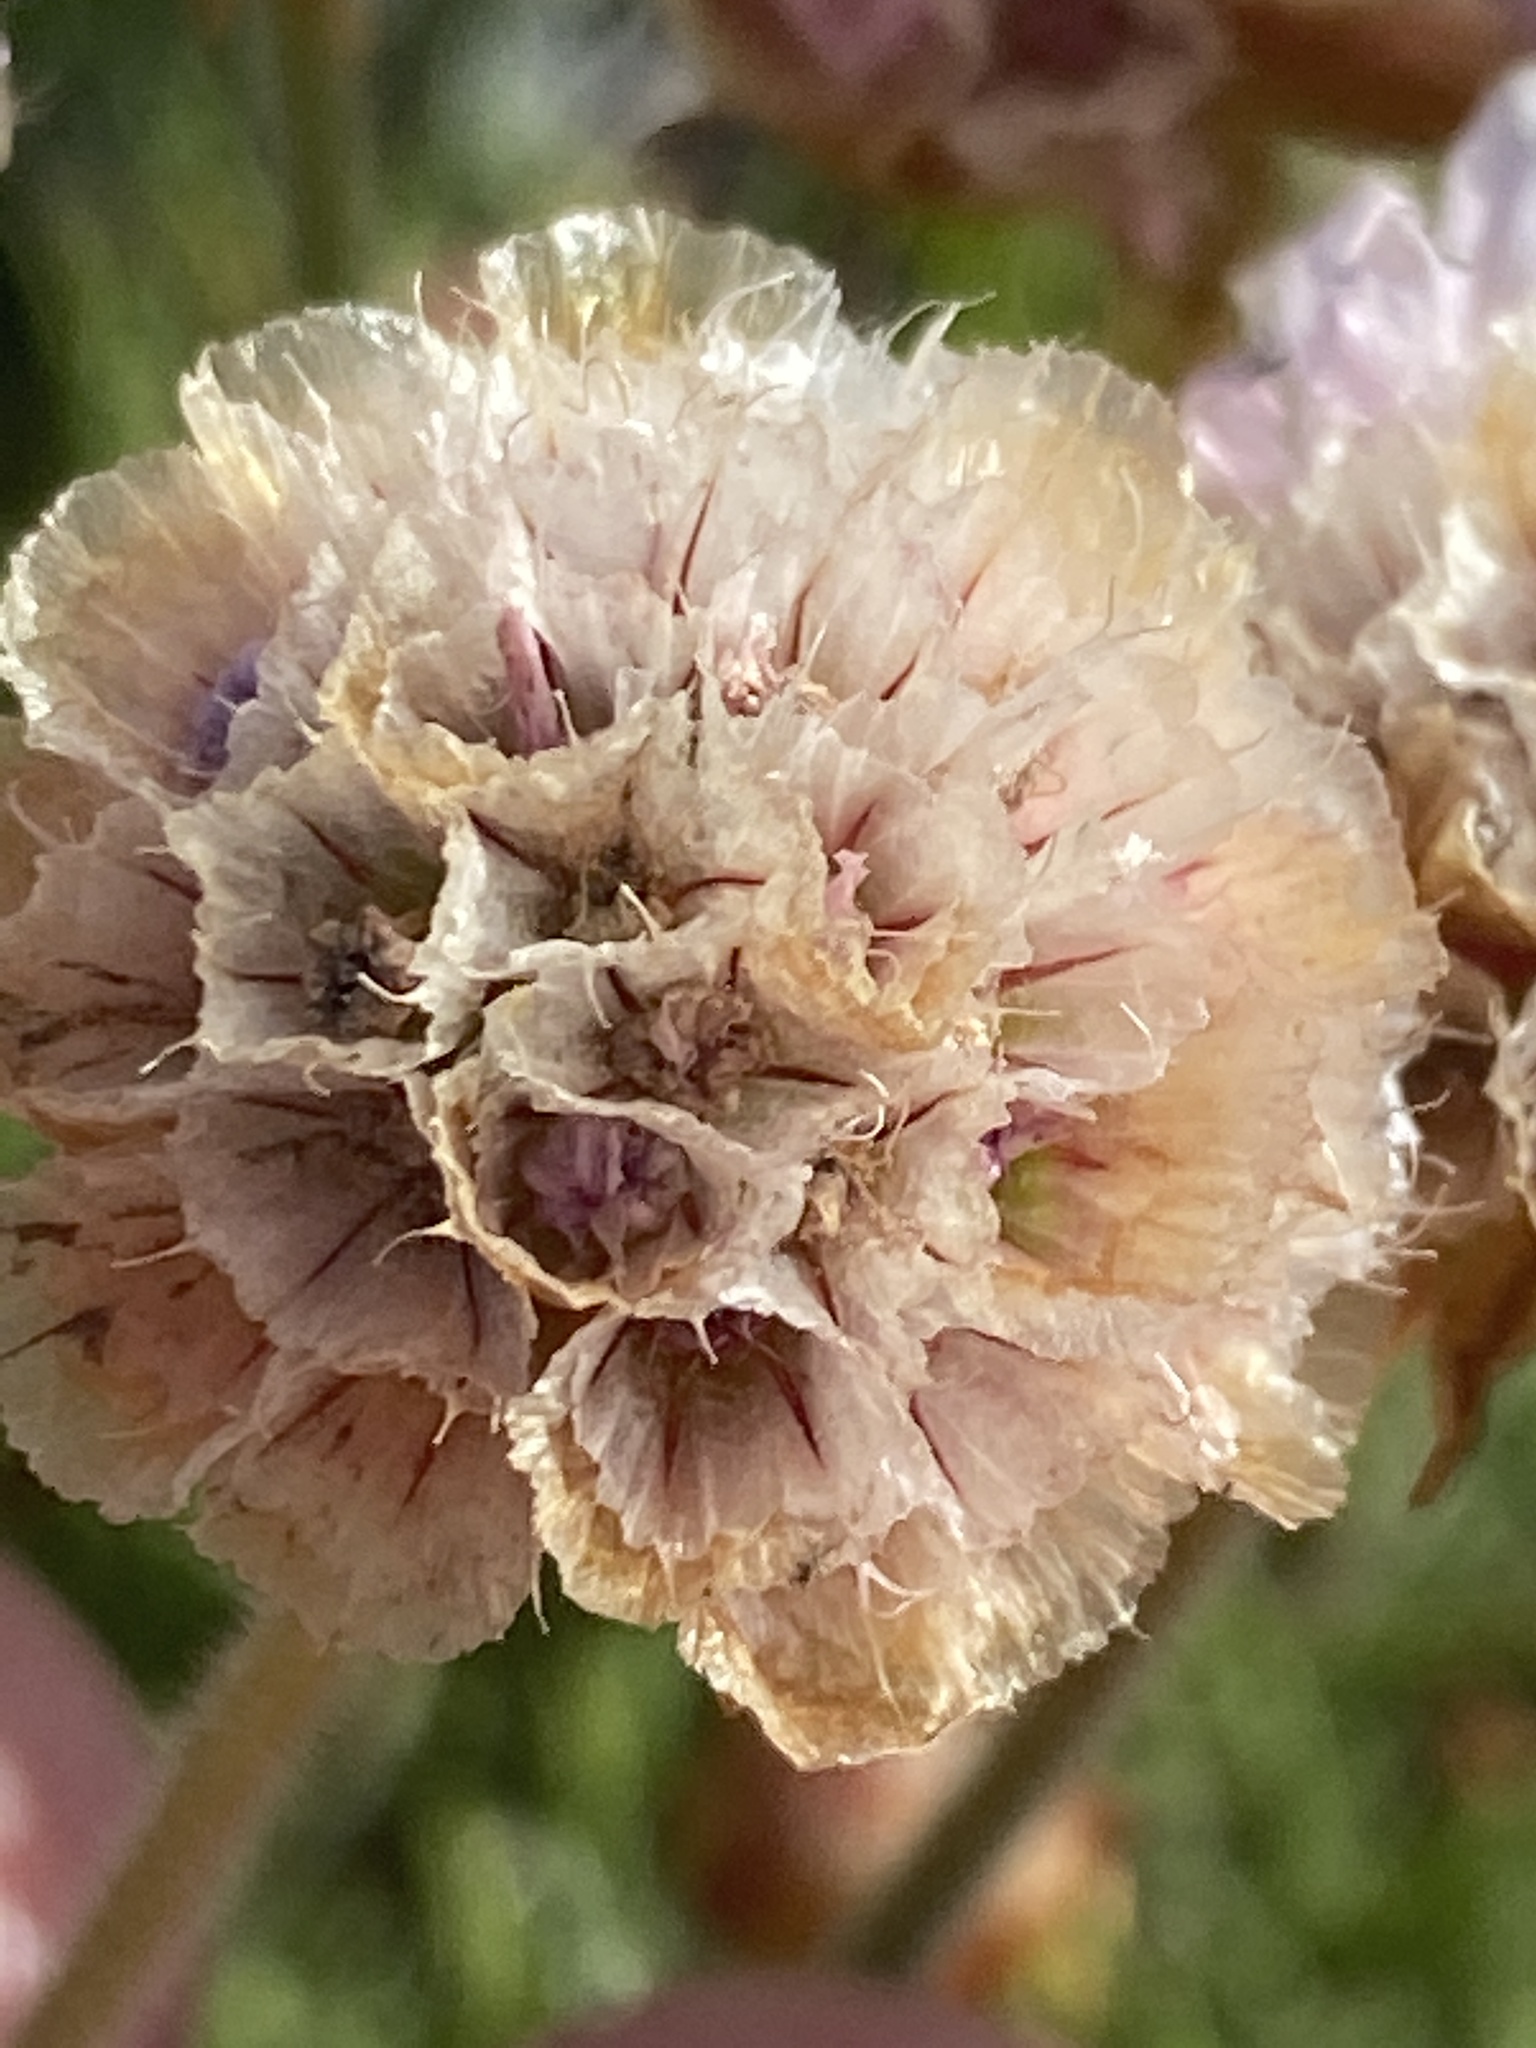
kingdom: Plantae
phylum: Tracheophyta
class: Magnoliopsida
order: Caryophyllales
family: Plumbaginaceae
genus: Armeria
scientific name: Armeria maritima
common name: Thrift
